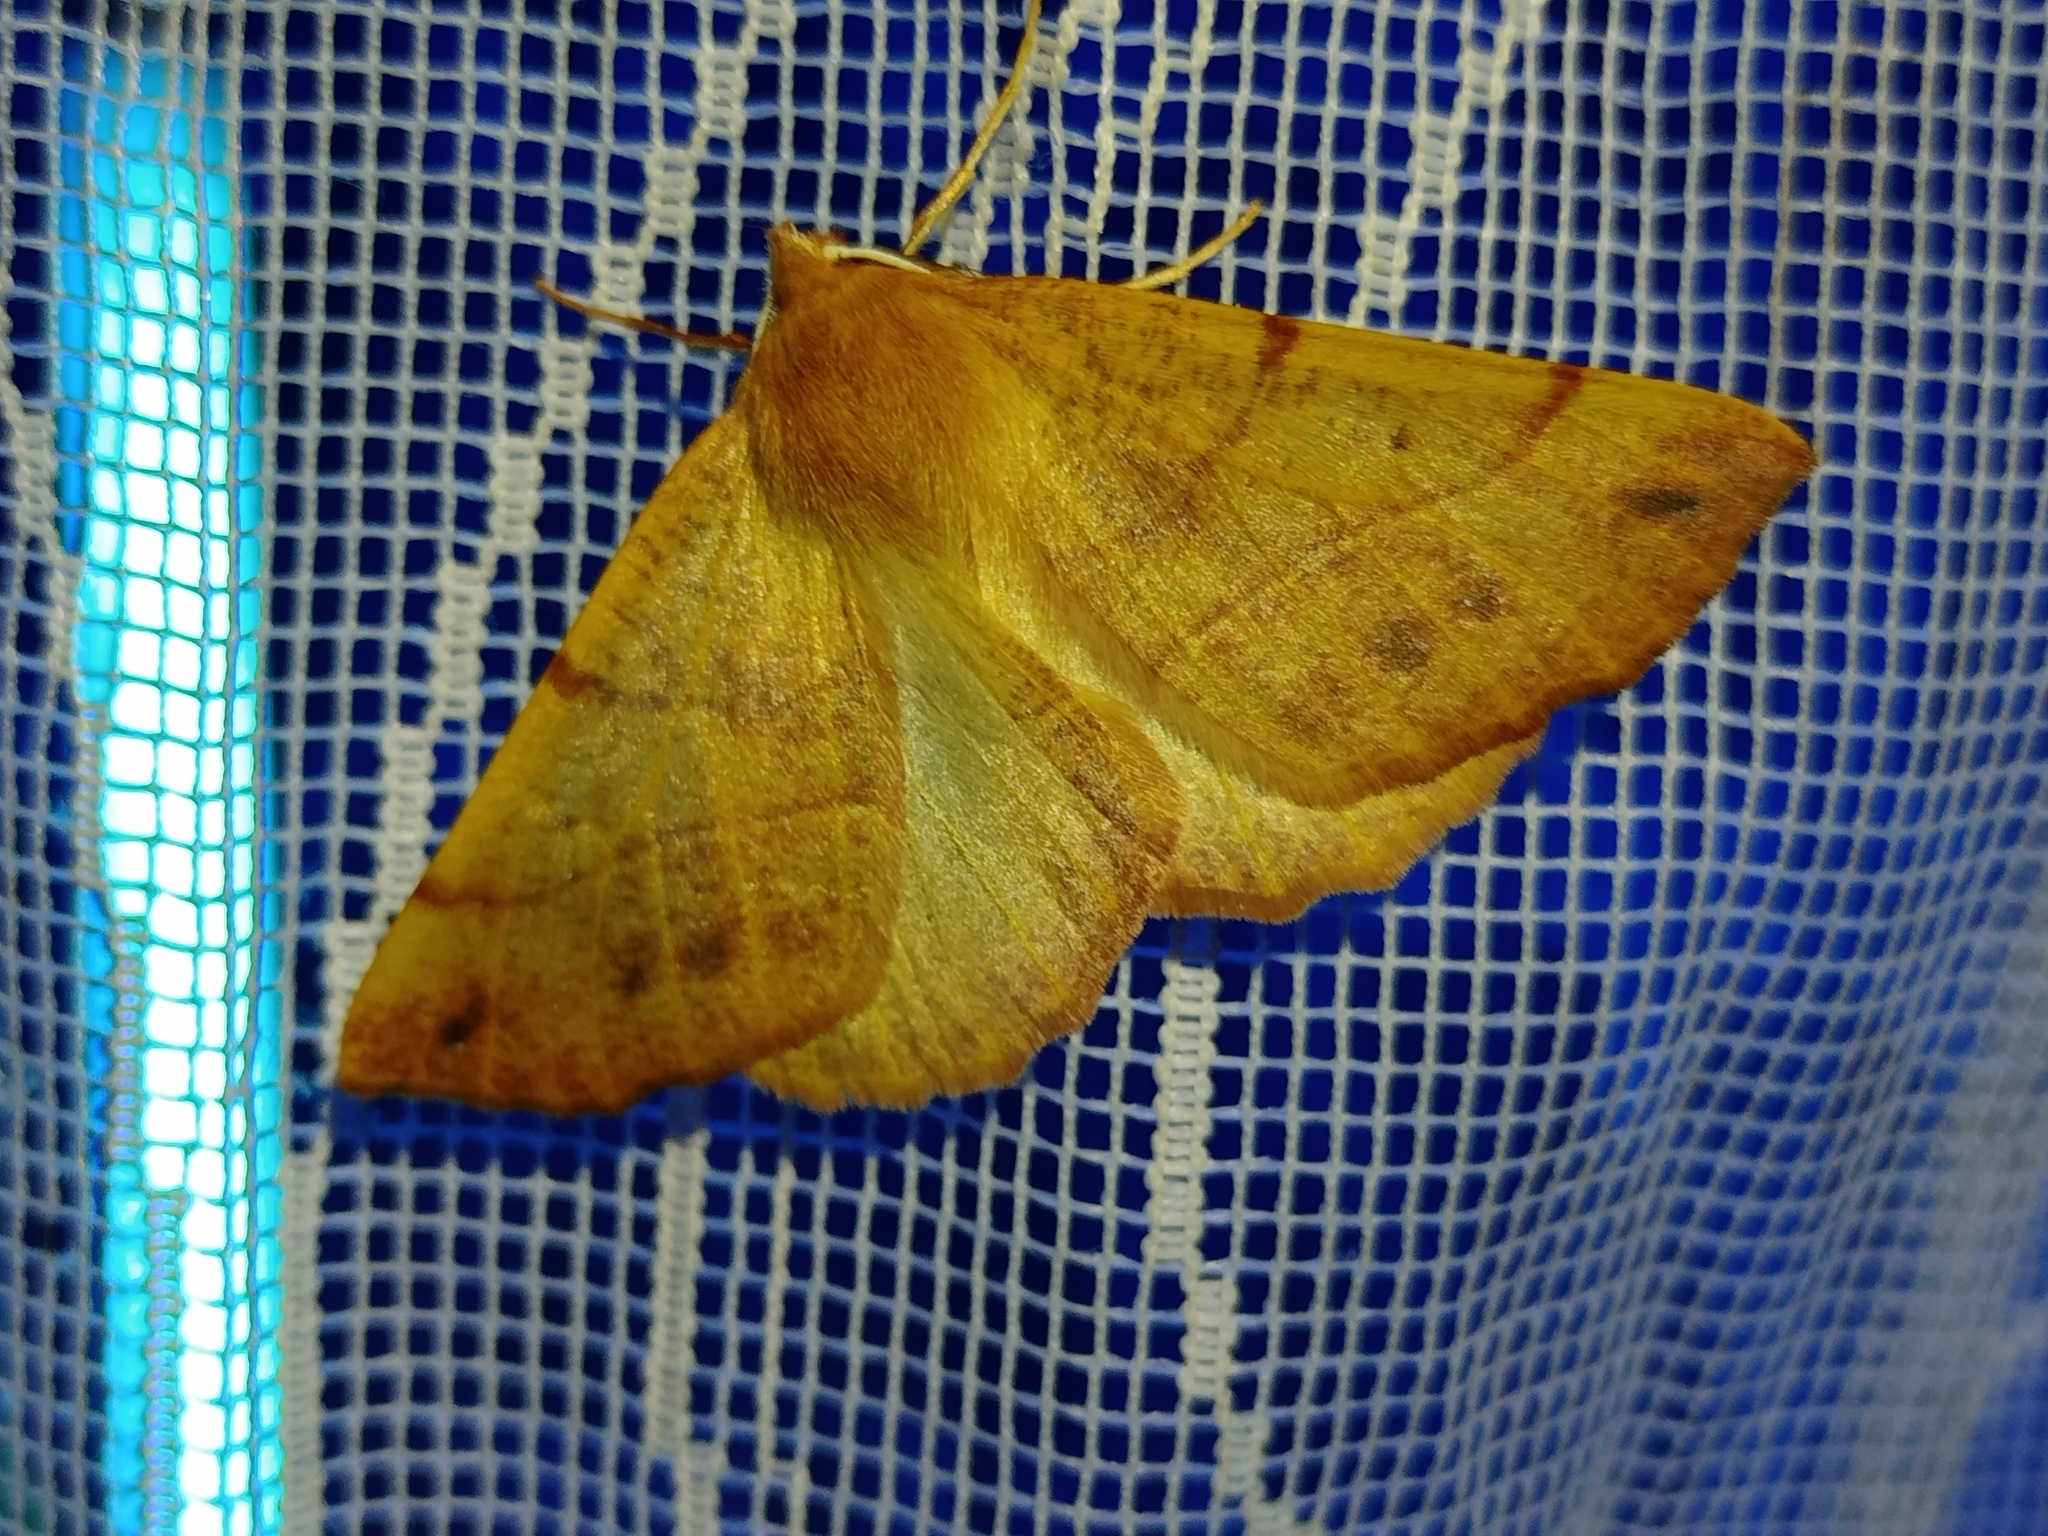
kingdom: Animalia
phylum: Arthropoda
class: Insecta
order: Lepidoptera
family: Geometridae
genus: Colotois
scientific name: Colotois pennaria
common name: Feathered thorn
